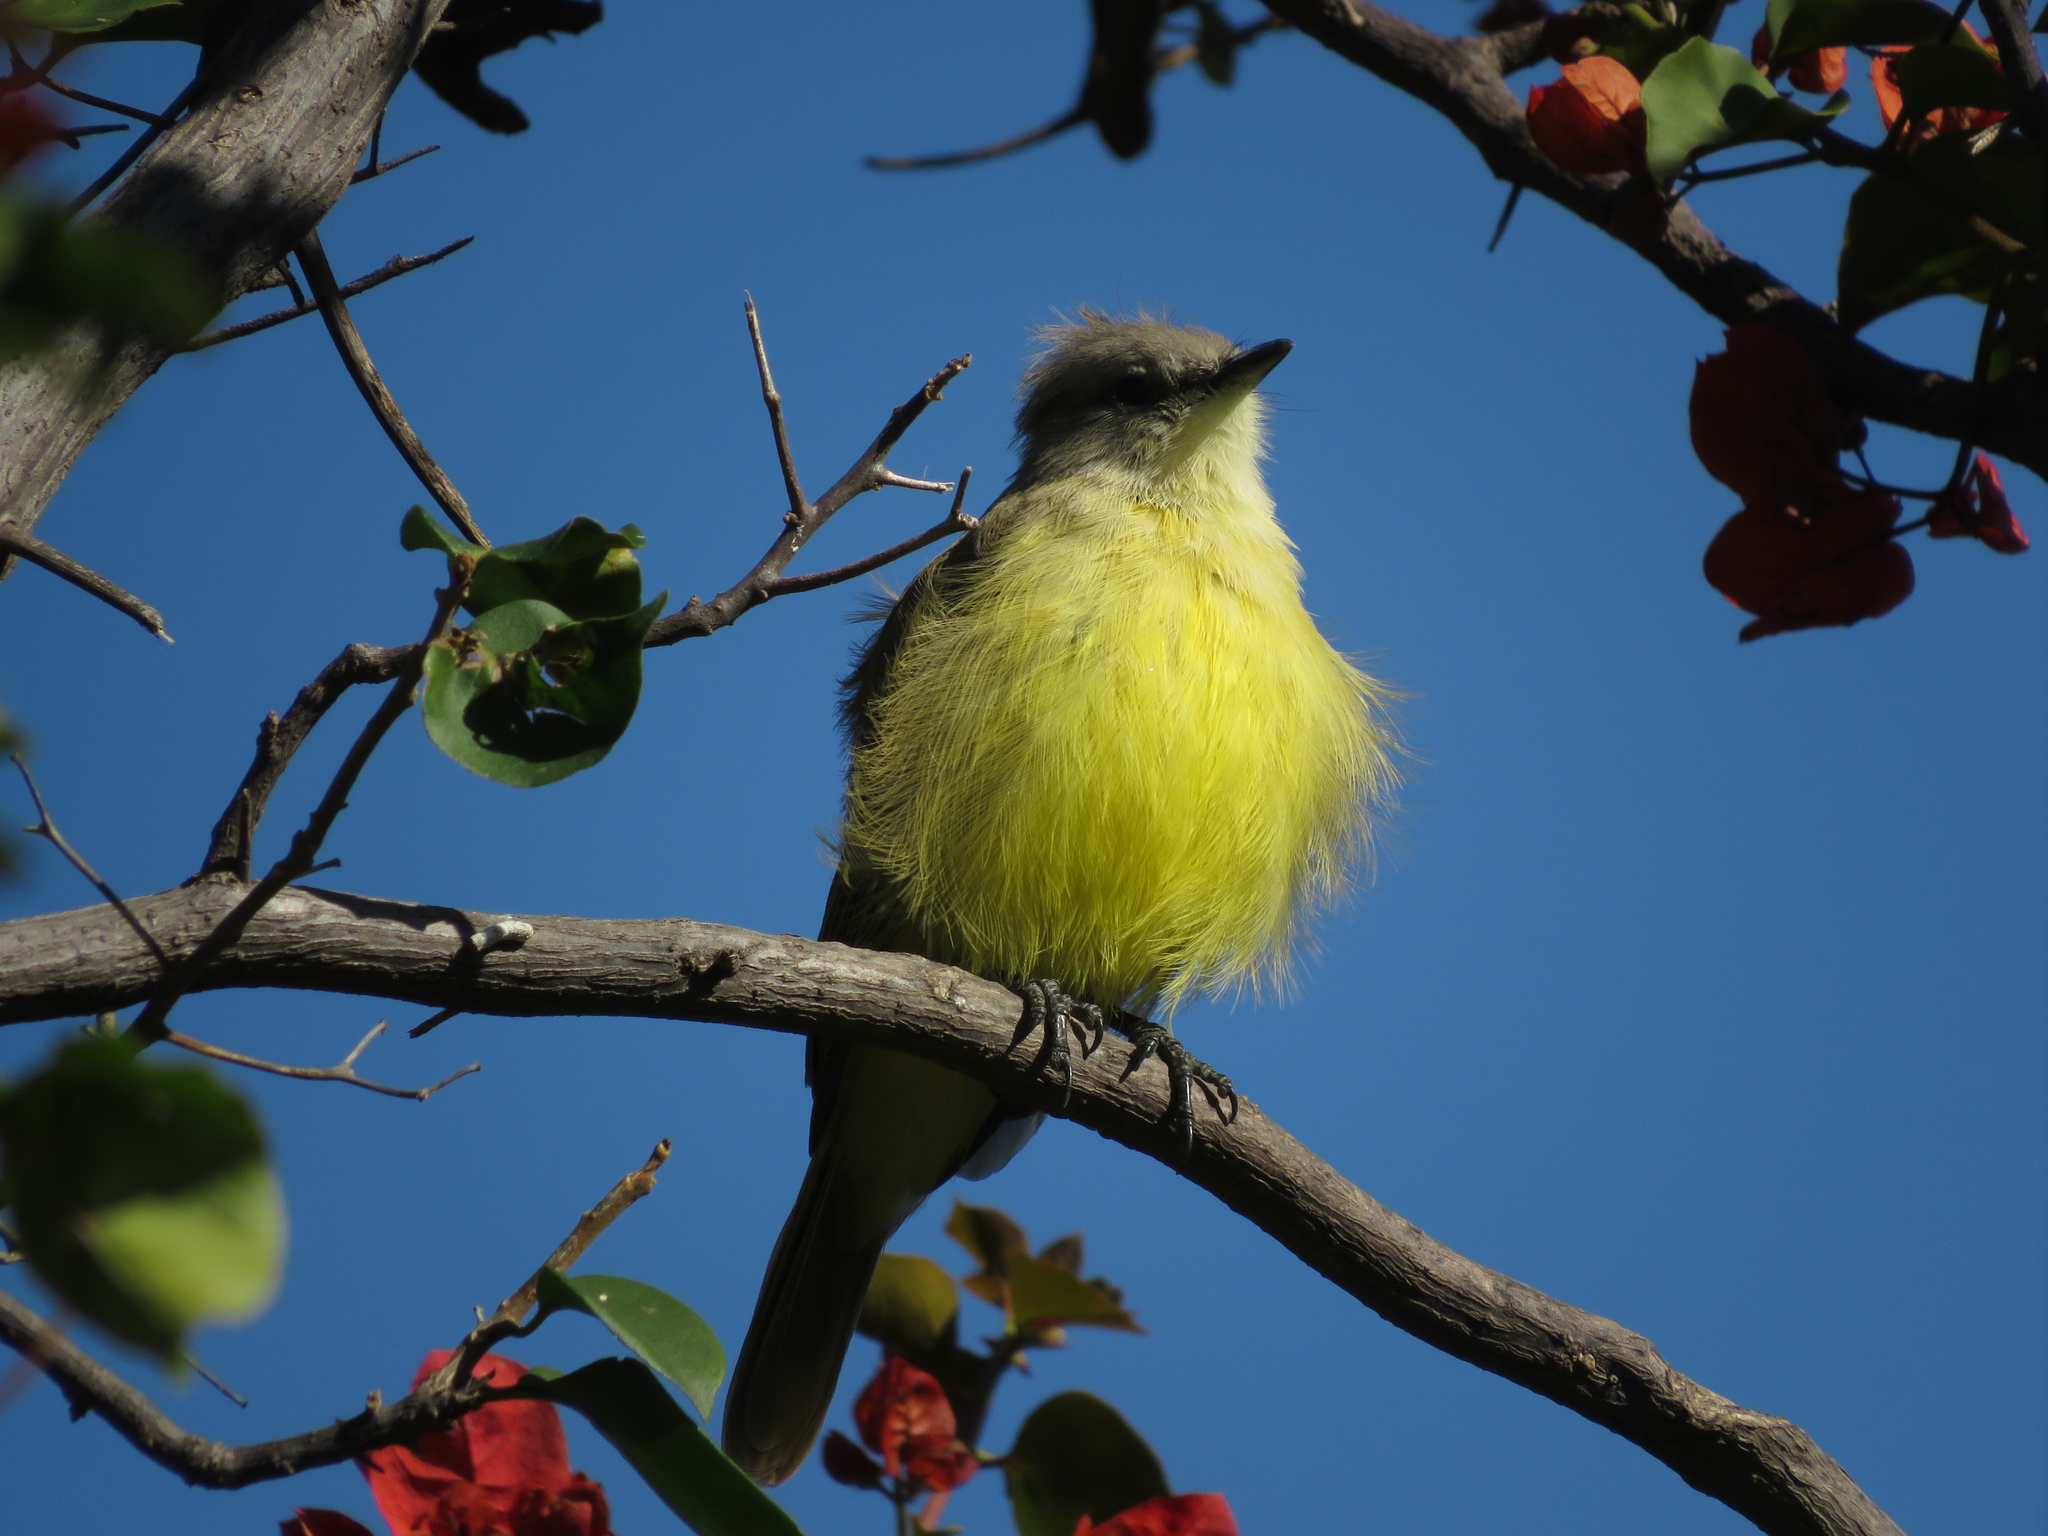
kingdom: Animalia
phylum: Chordata
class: Aves
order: Passeriformes
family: Tyrannidae
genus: Machetornis
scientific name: Machetornis rixosa
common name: Cattle tyrant
